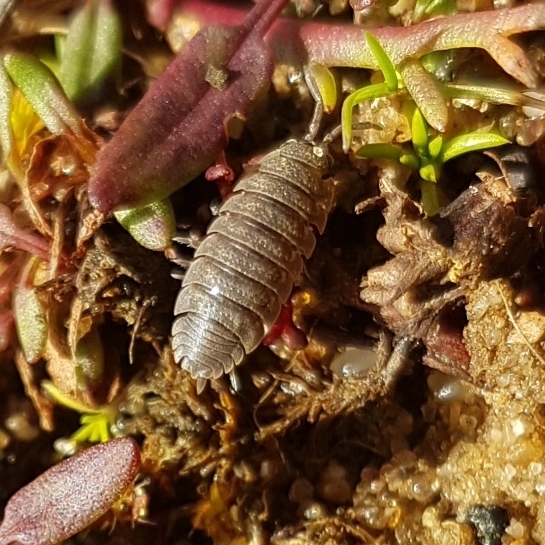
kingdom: Animalia
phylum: Arthropoda
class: Malacostraca
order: Isopoda
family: Porcellionidae
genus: Porcellio
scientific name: Porcellio scaber
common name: Common rough woodlouse
